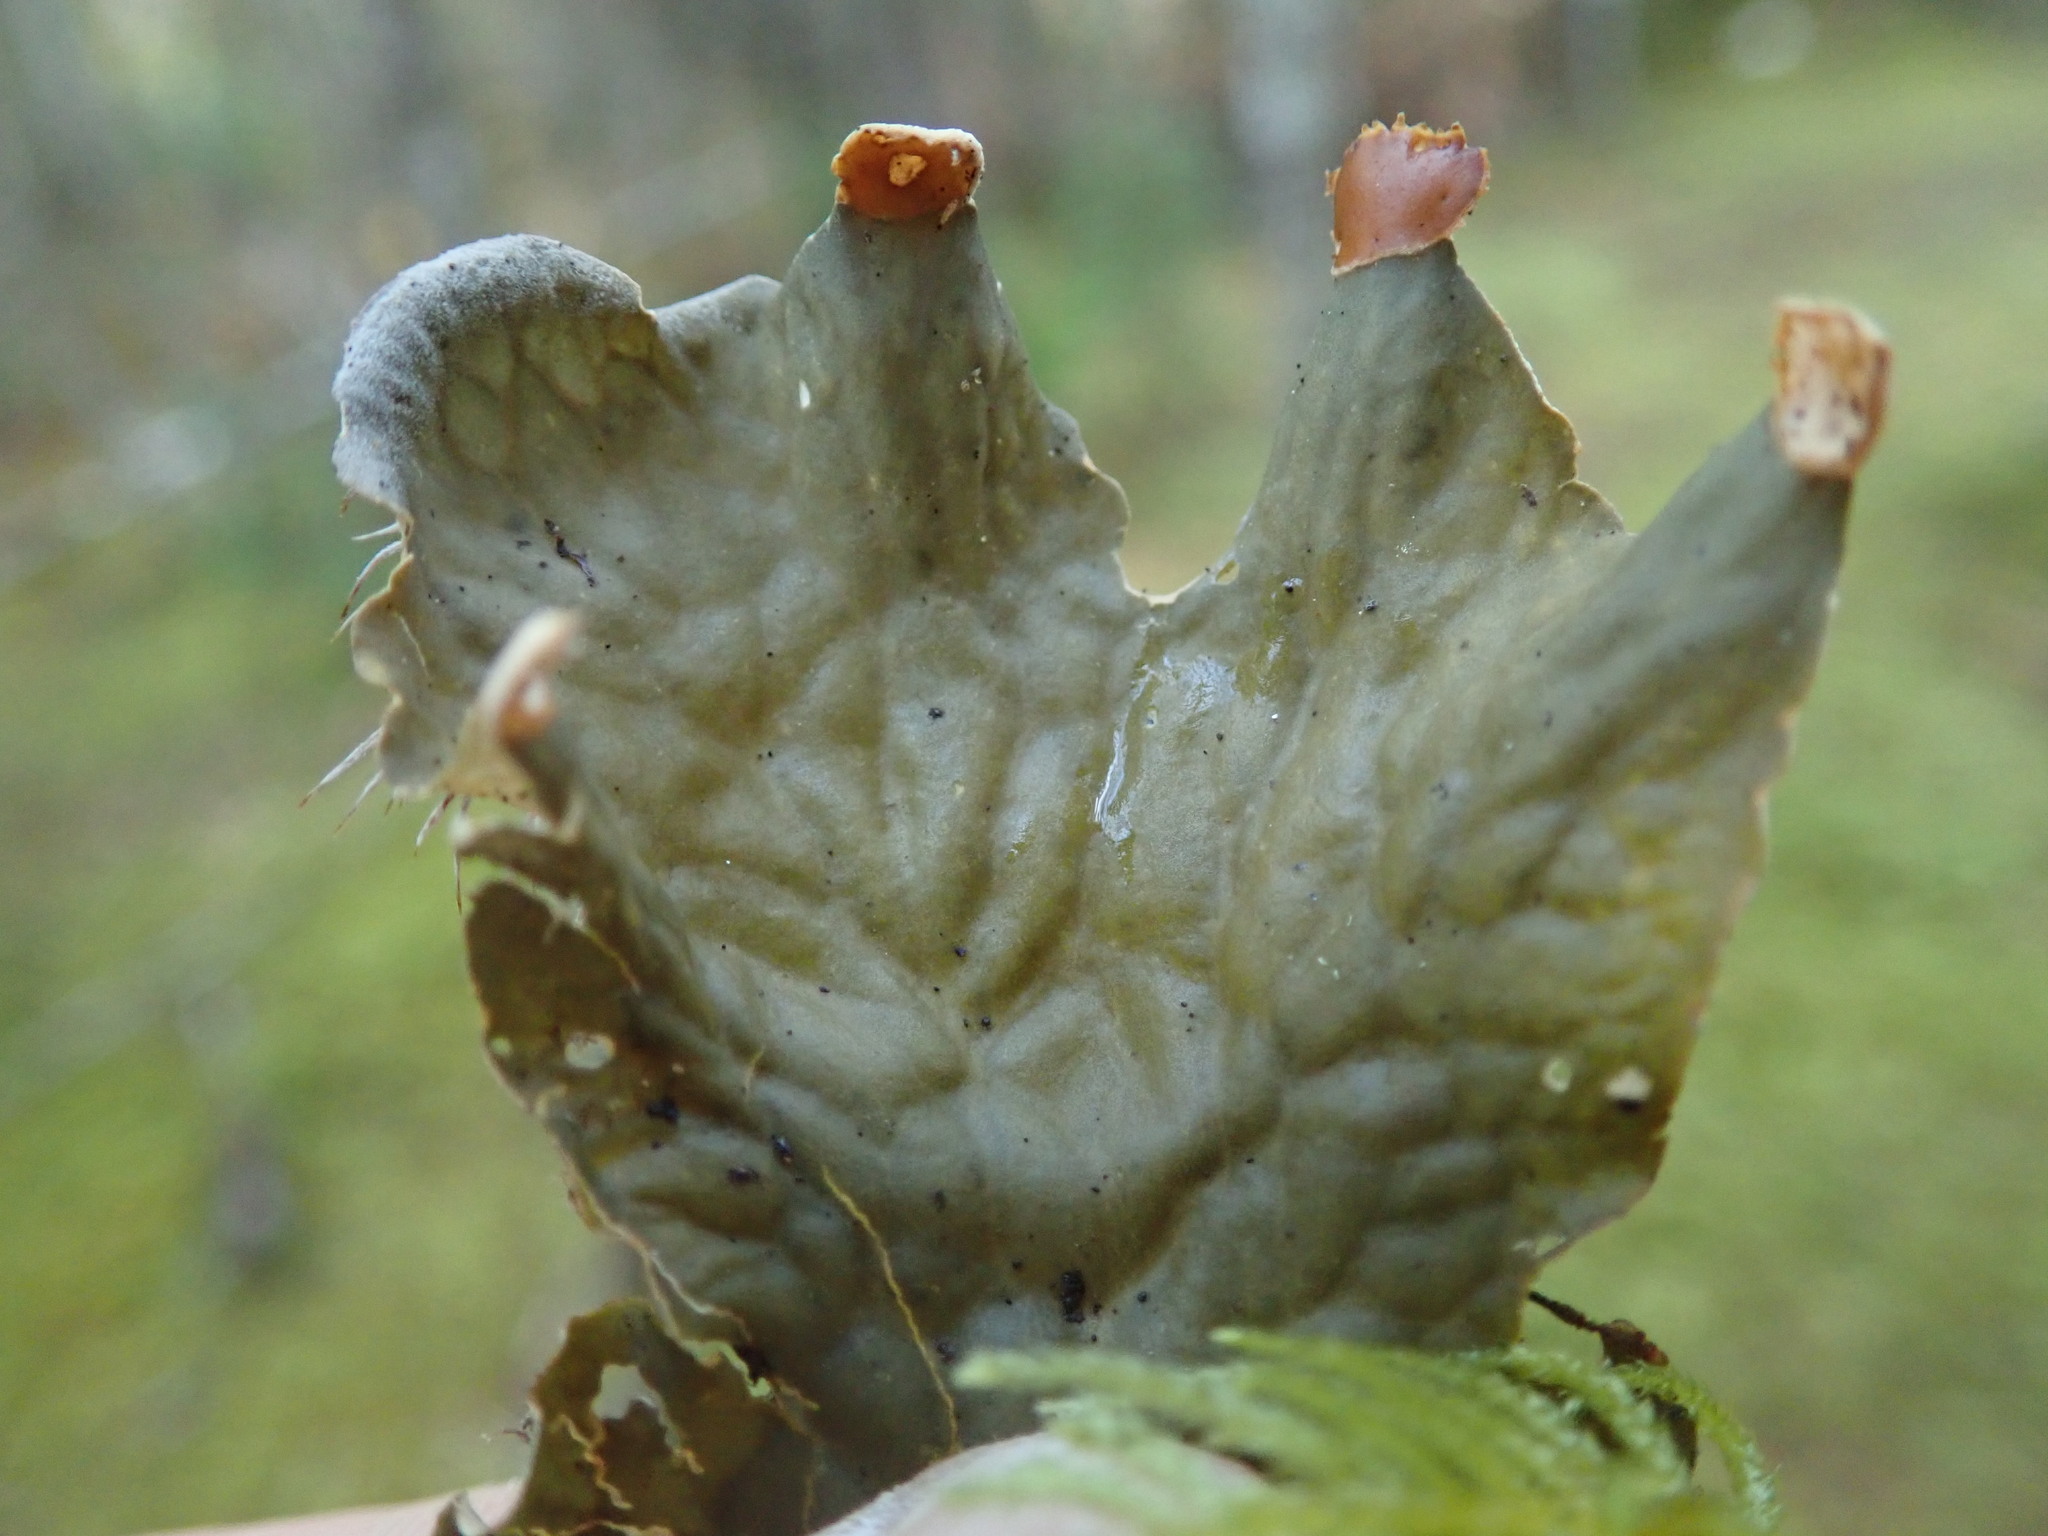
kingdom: Fungi
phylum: Ascomycota
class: Lecanoromycetes
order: Peltigerales
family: Peltigeraceae
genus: Peltigera
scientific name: Peltigera membranacea
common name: Membranous pelt lichen
